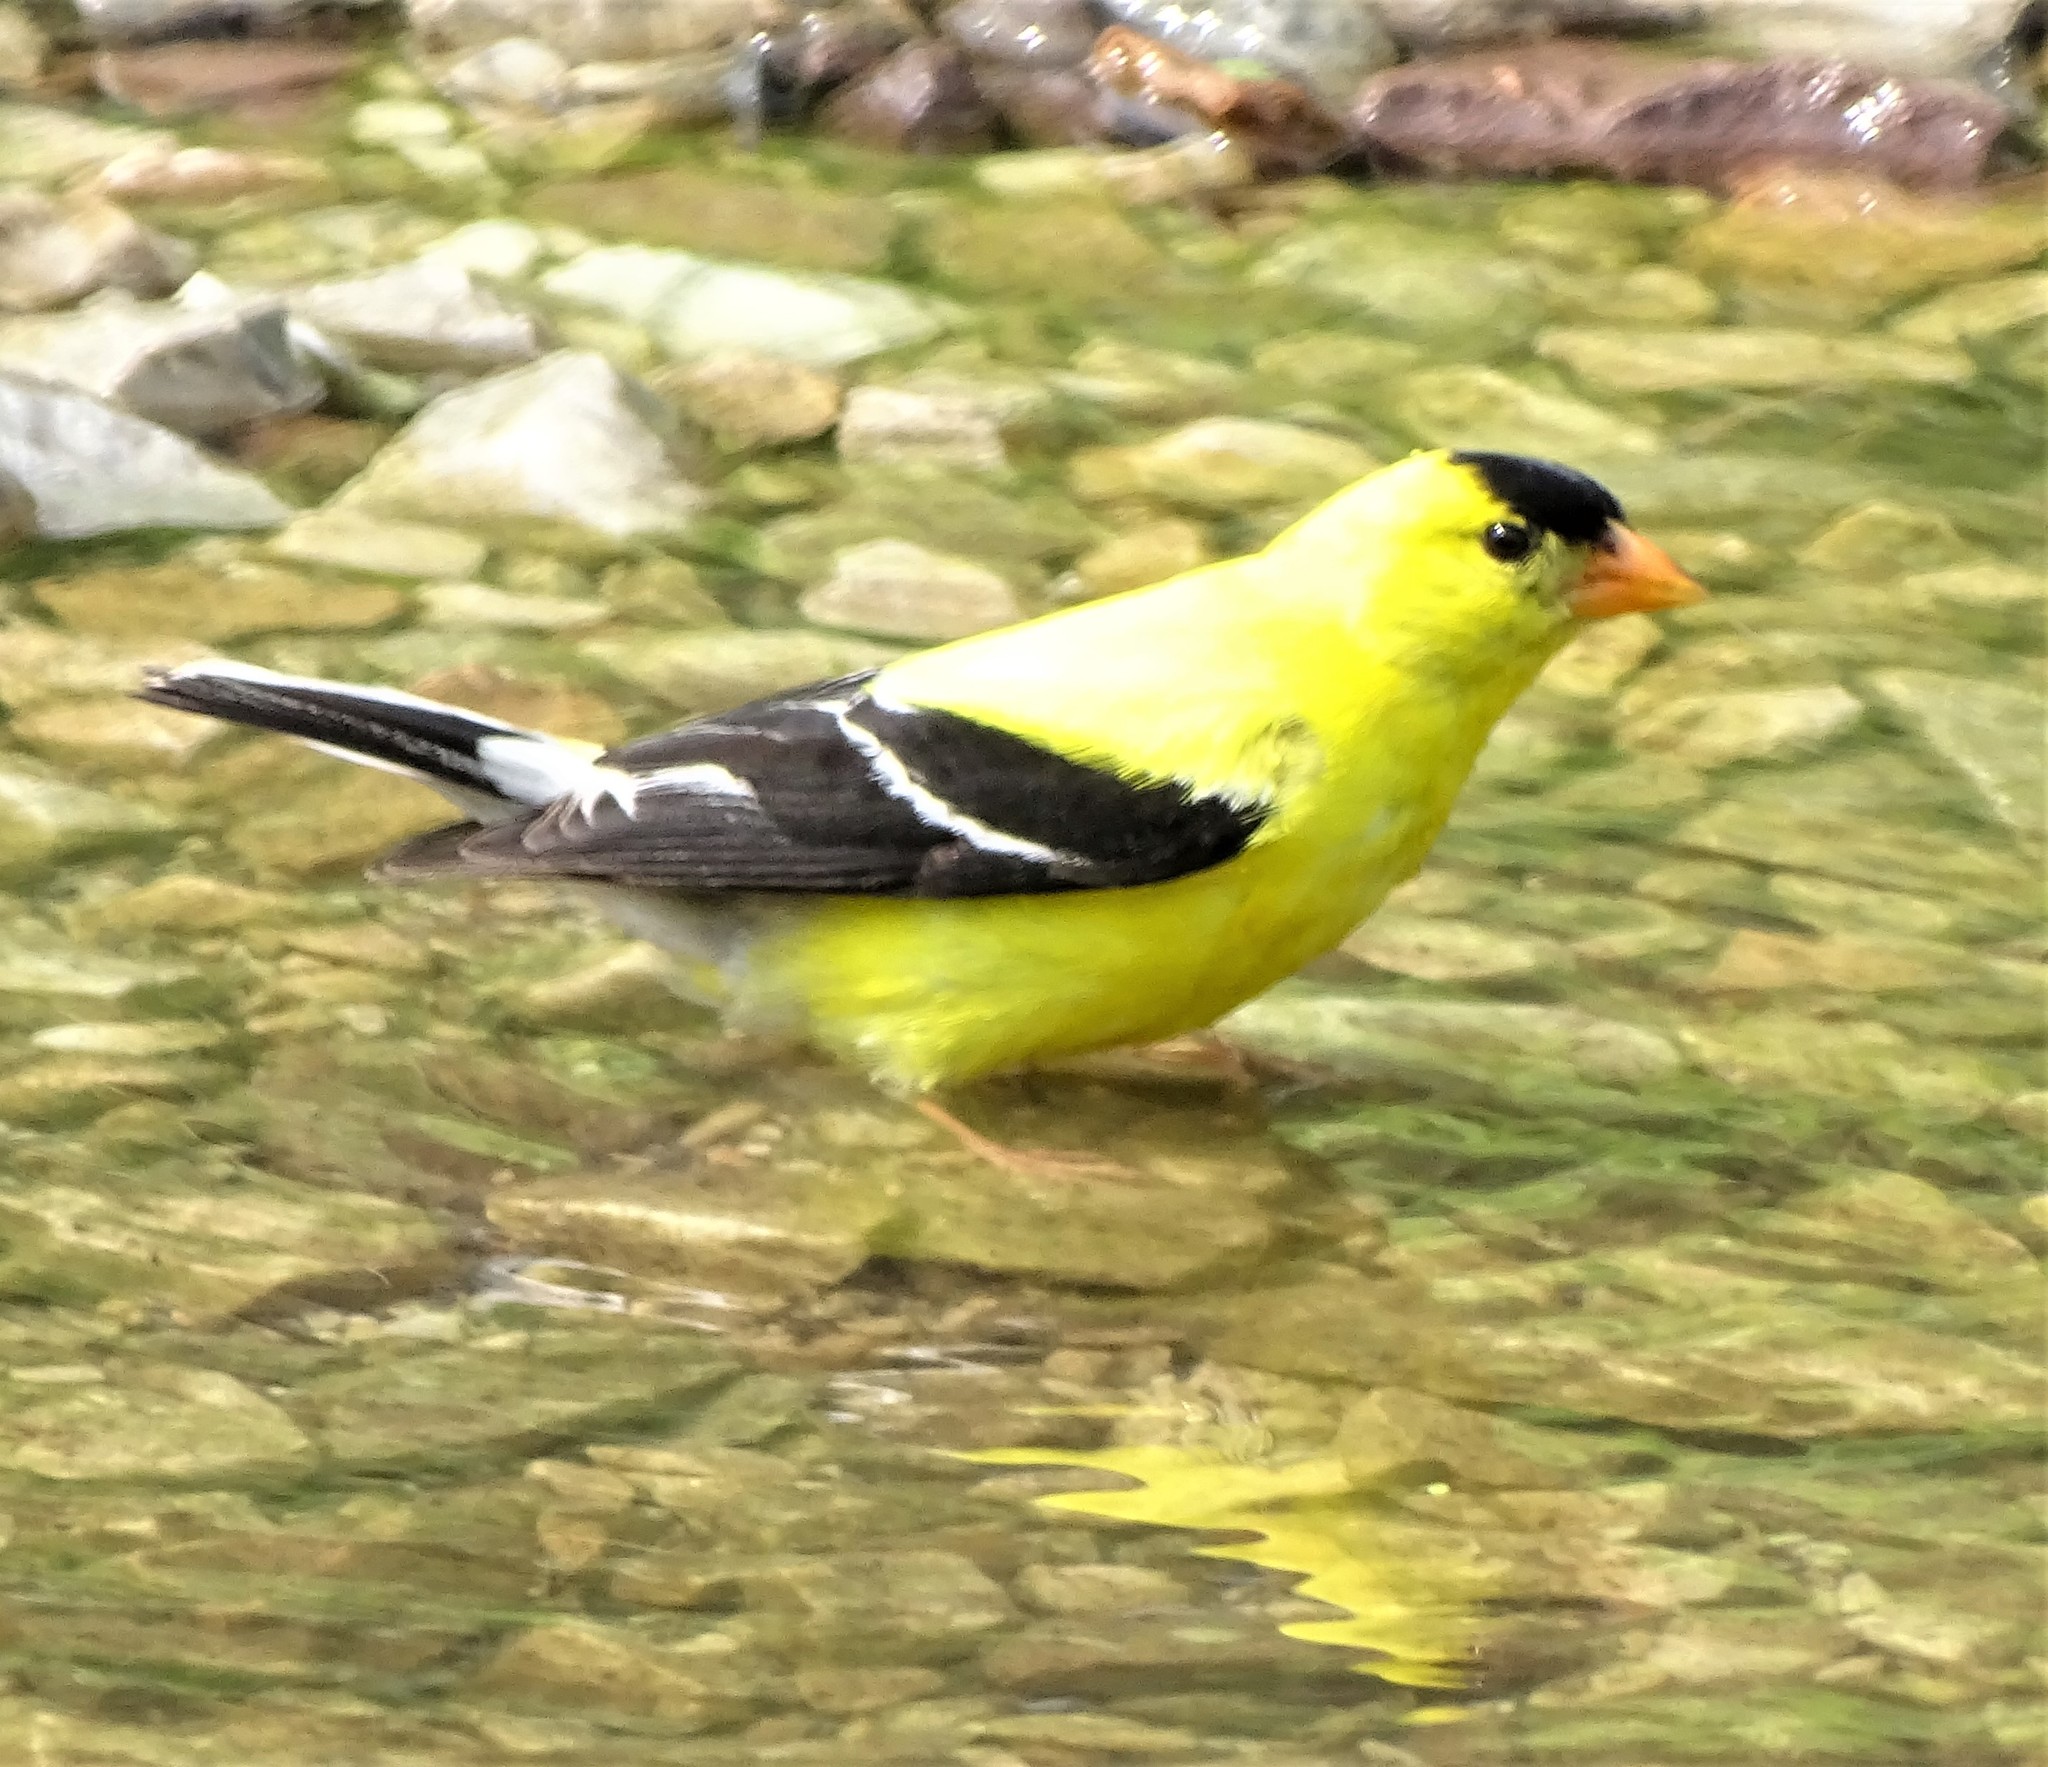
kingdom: Animalia
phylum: Chordata
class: Aves
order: Passeriformes
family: Fringillidae
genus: Spinus
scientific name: Spinus tristis
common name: American goldfinch
